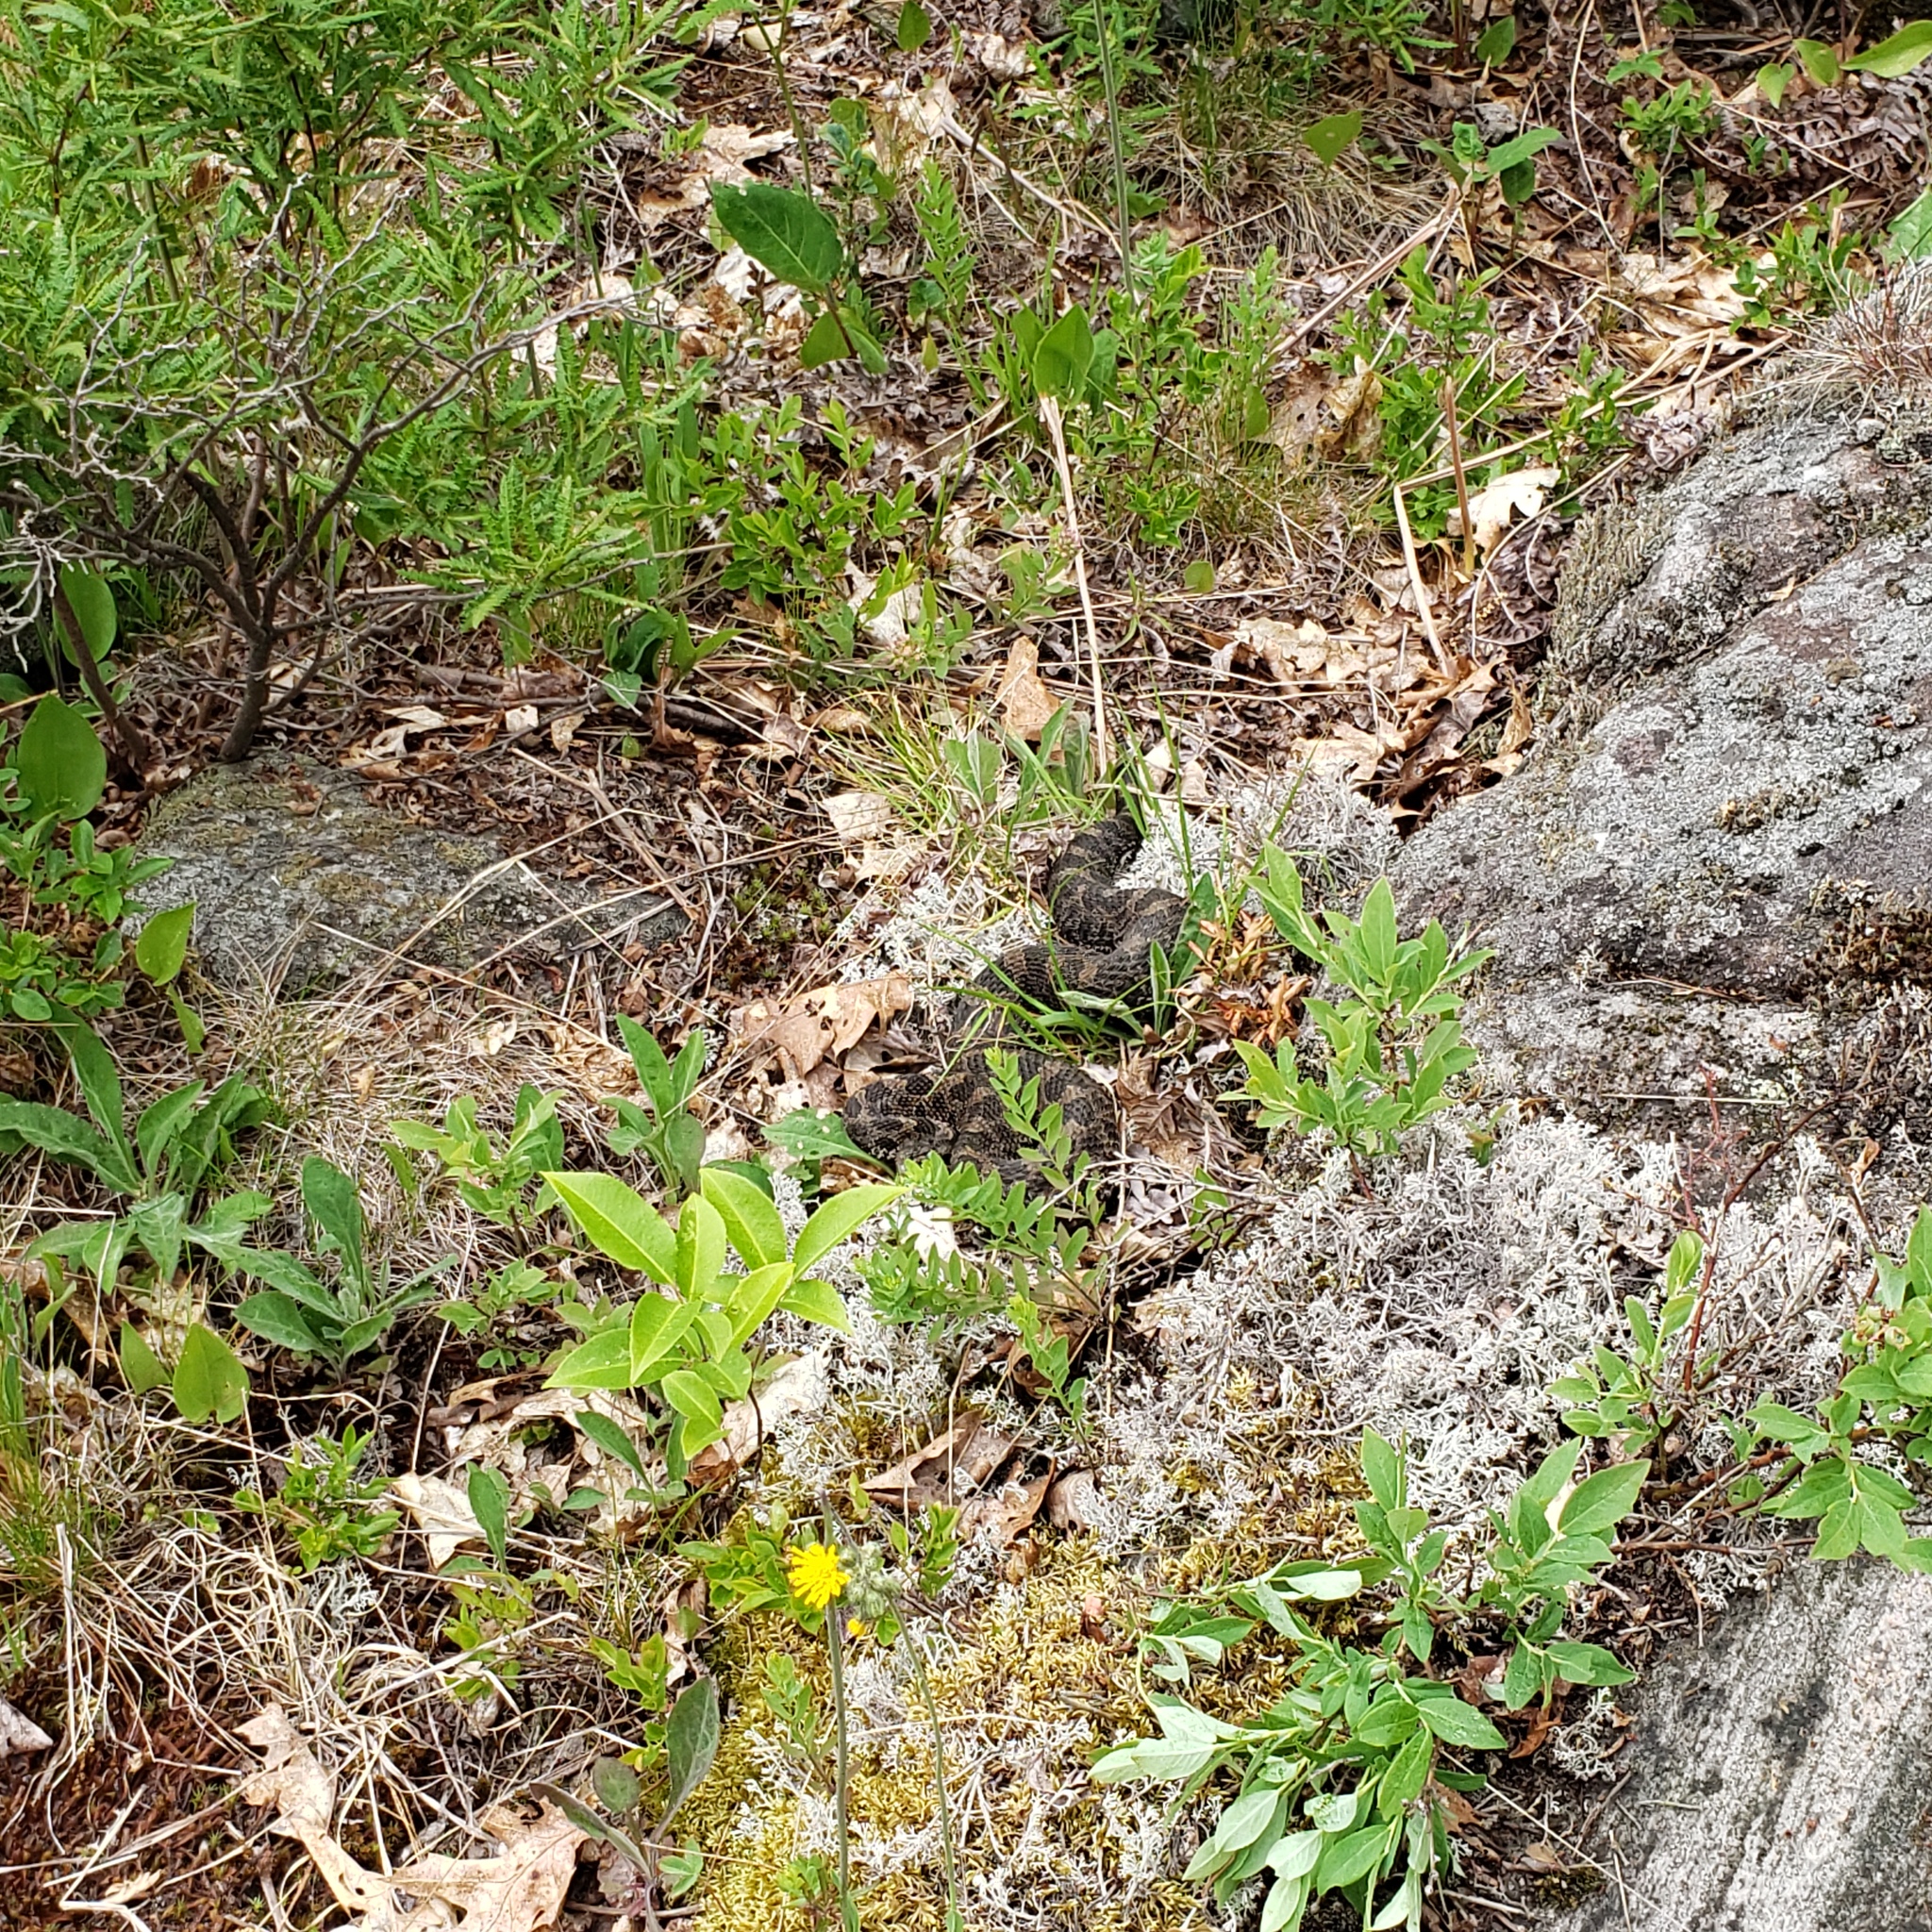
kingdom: Animalia
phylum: Chordata
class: Squamata
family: Viperidae
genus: Sistrurus
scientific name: Sistrurus catenatus
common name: Massasauga
